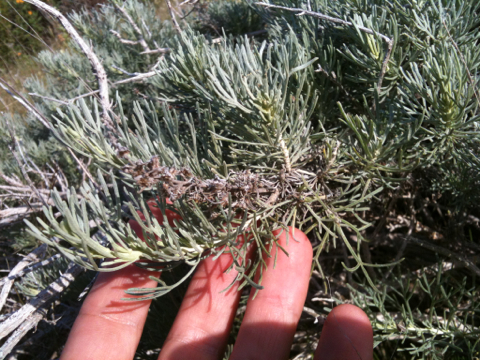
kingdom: Plantae
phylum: Tracheophyta
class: Magnoliopsida
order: Asterales
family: Asteraceae
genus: Artemisia
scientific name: Artemisia californica
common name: California sagebrush
